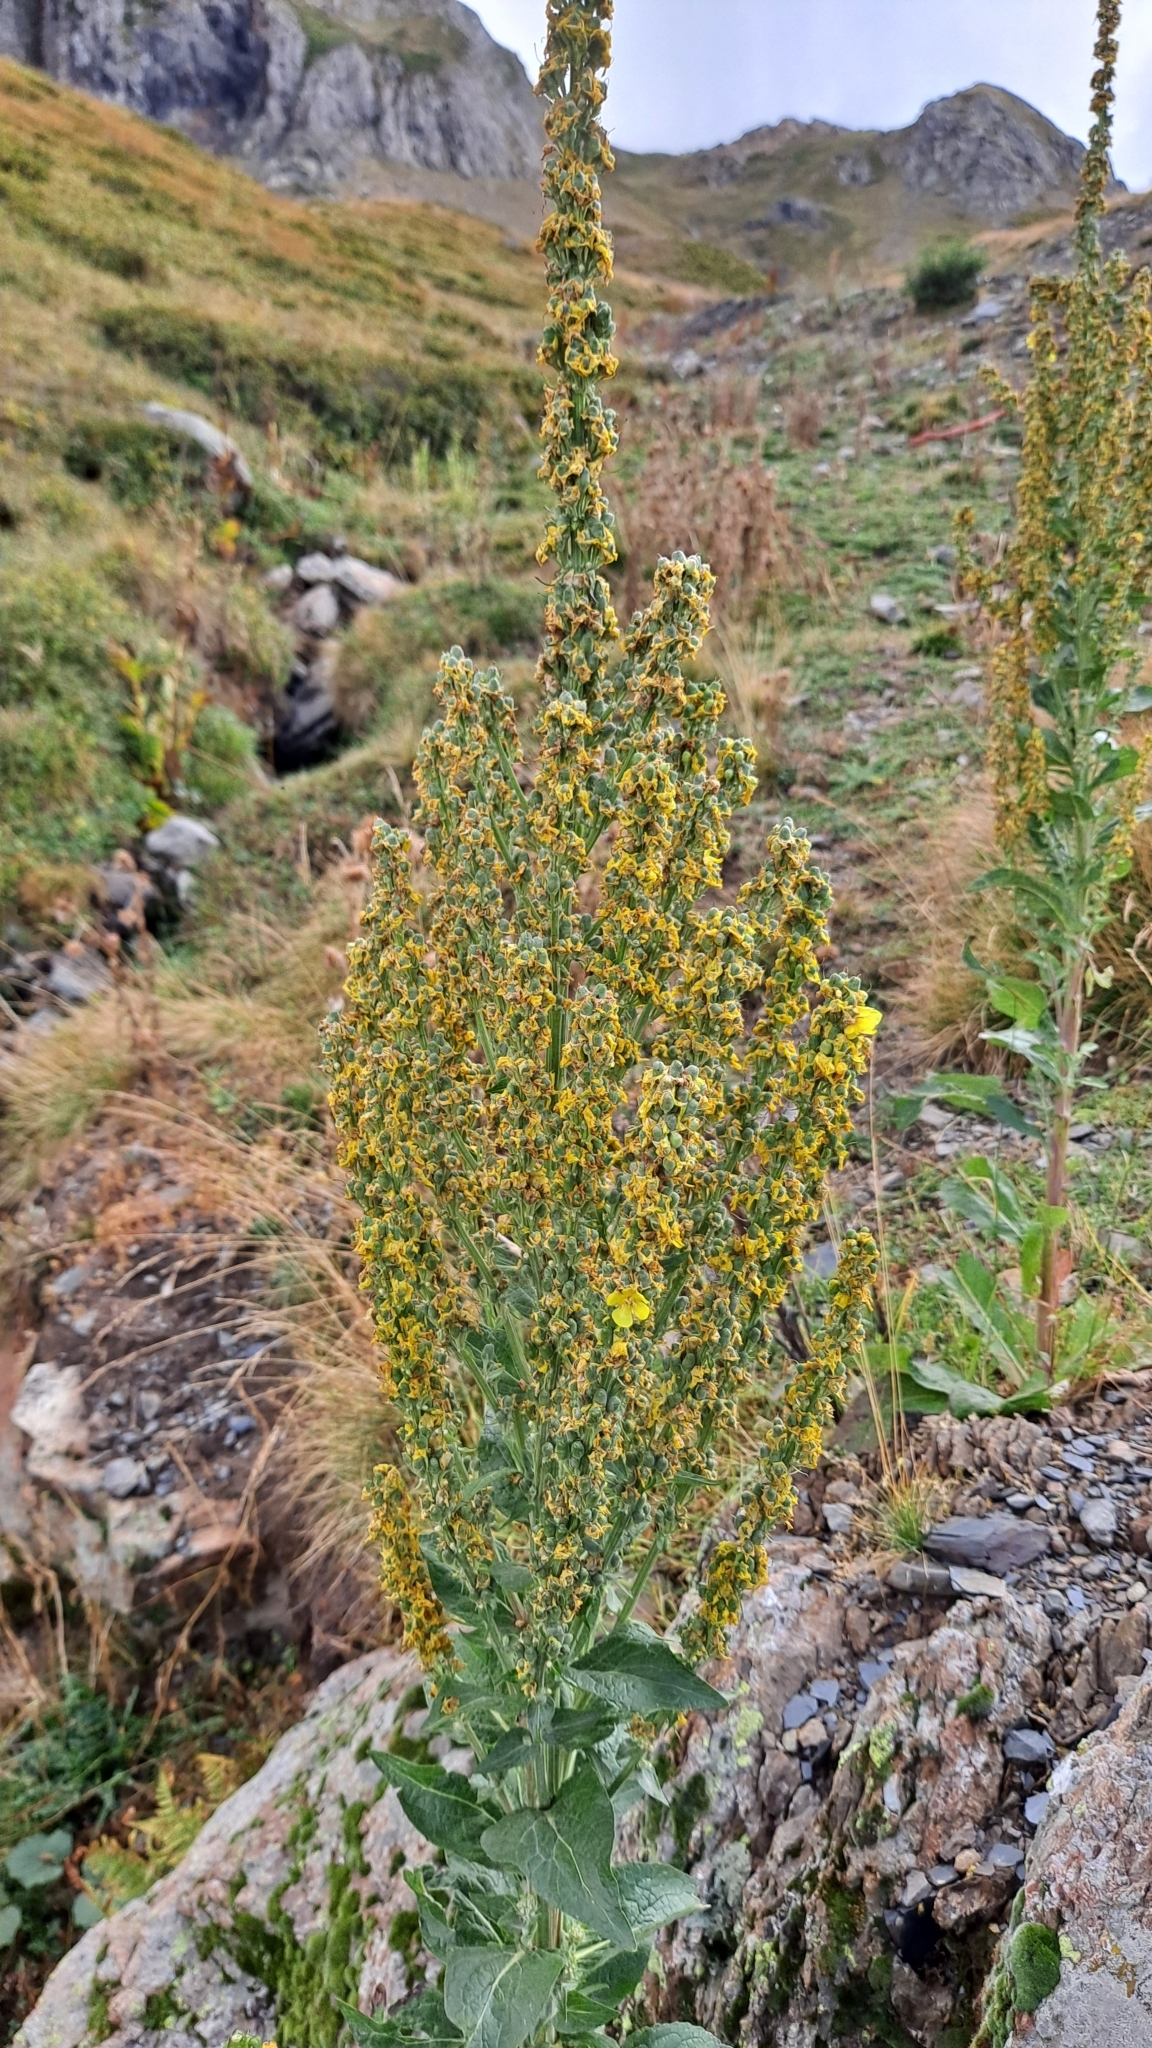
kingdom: Plantae
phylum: Tracheophyta
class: Magnoliopsida
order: Lamiales
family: Scrophulariaceae
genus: Verbascum
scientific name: Verbascum lychnitis
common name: White mullein
